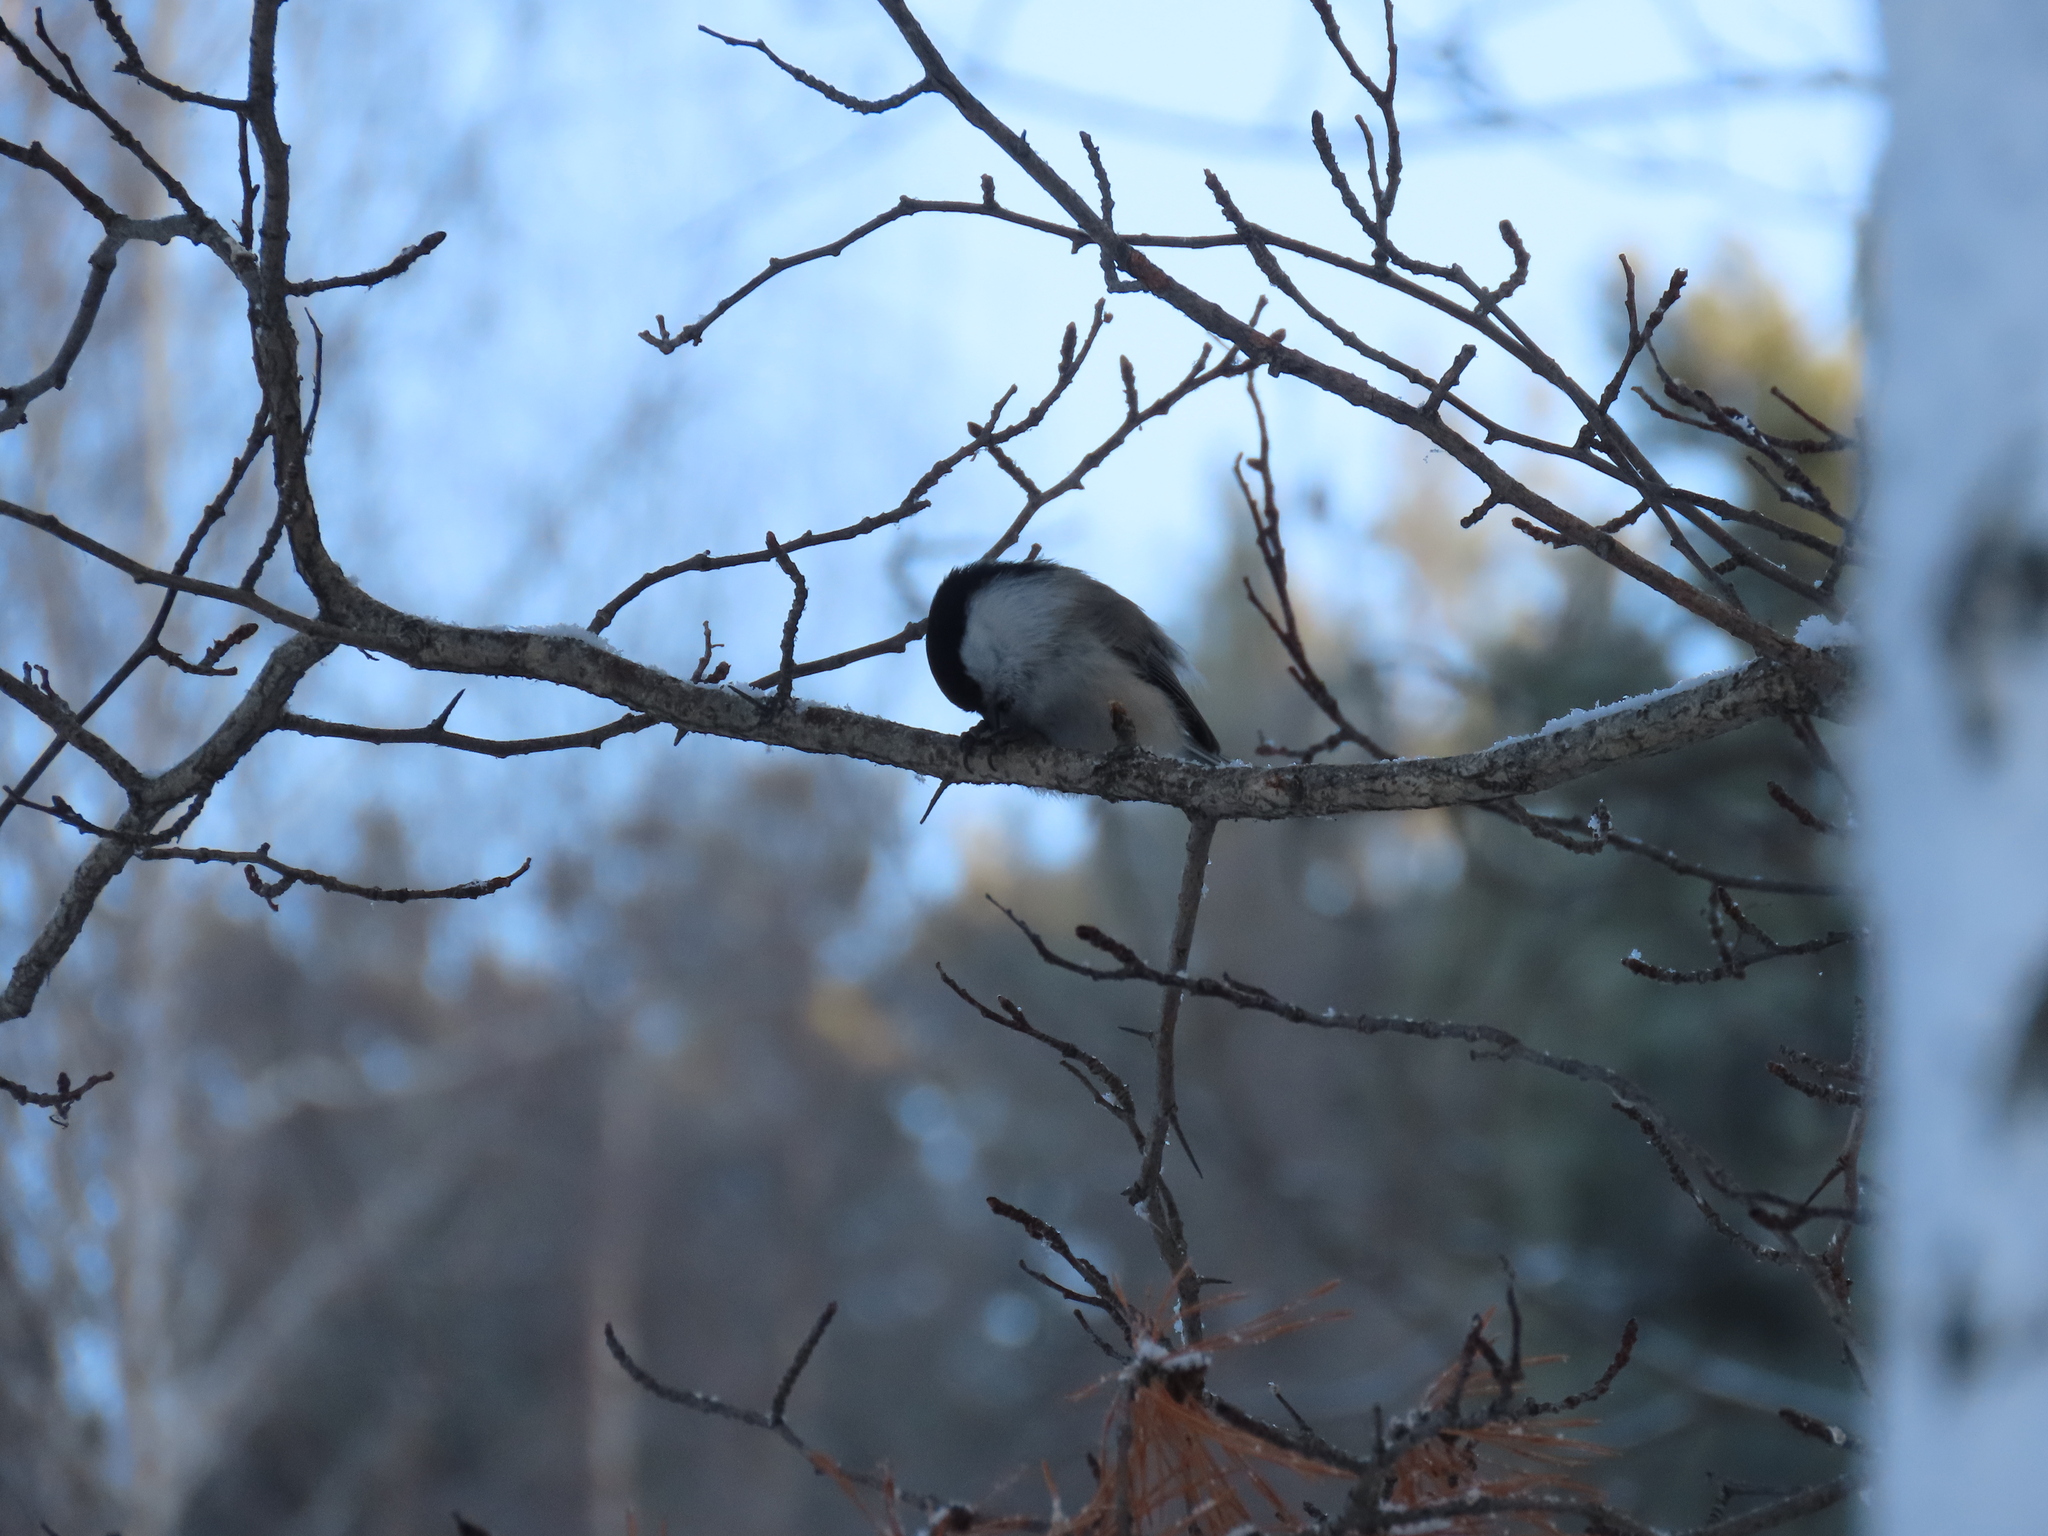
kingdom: Animalia
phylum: Chordata
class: Aves
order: Passeriformes
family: Paridae
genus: Poecile
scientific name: Poecile montanus
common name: Willow tit
